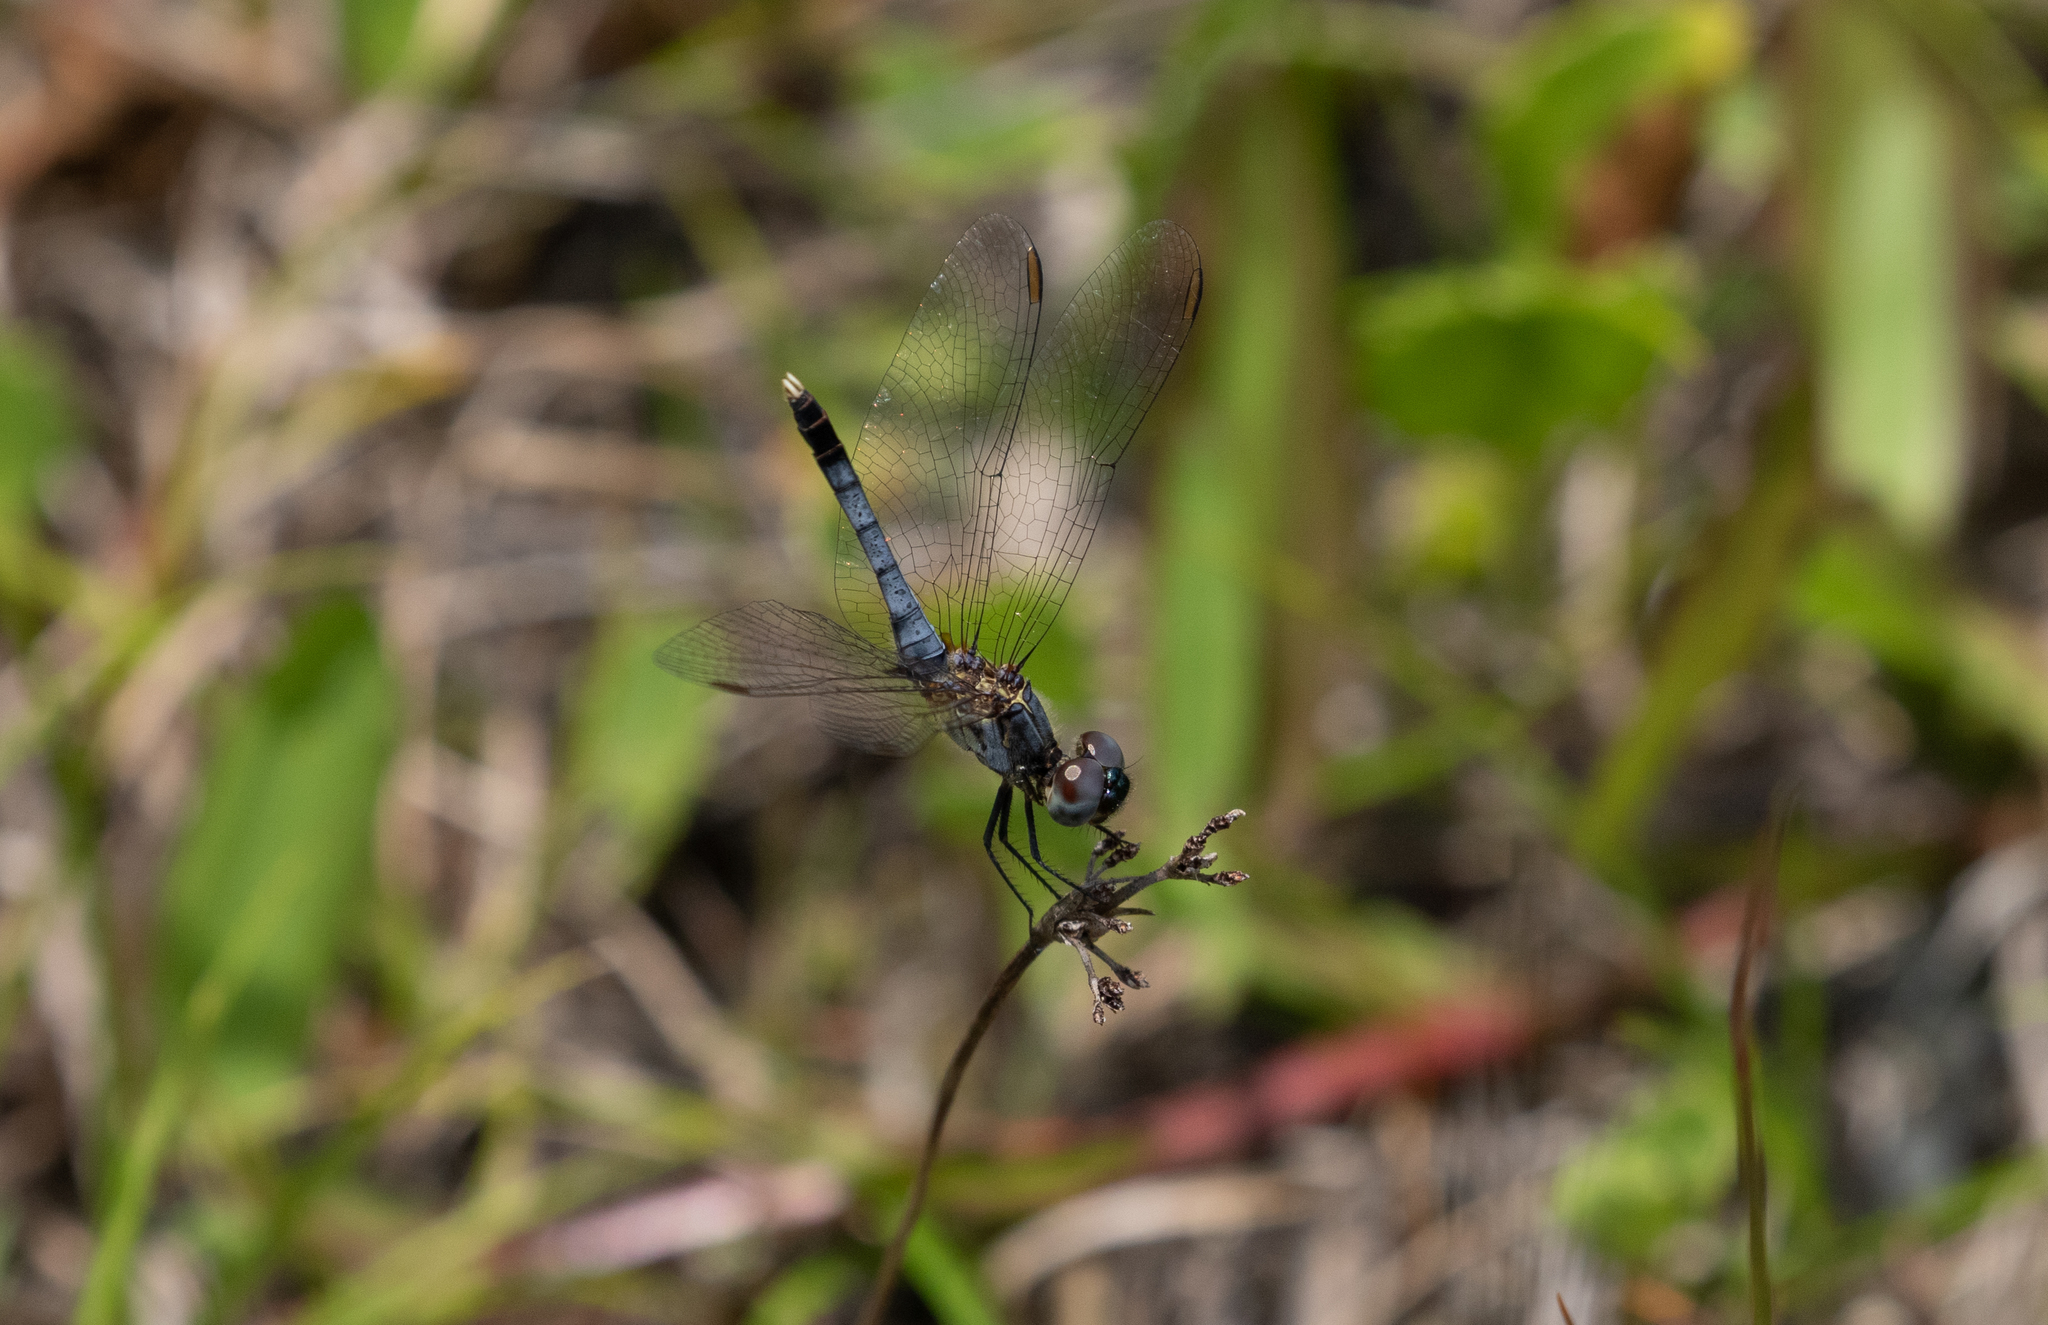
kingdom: Animalia
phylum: Arthropoda
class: Insecta
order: Odonata
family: Libellulidae
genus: Erythrodiplax
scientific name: Erythrodiplax minuscula
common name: Little blue dragonlet
